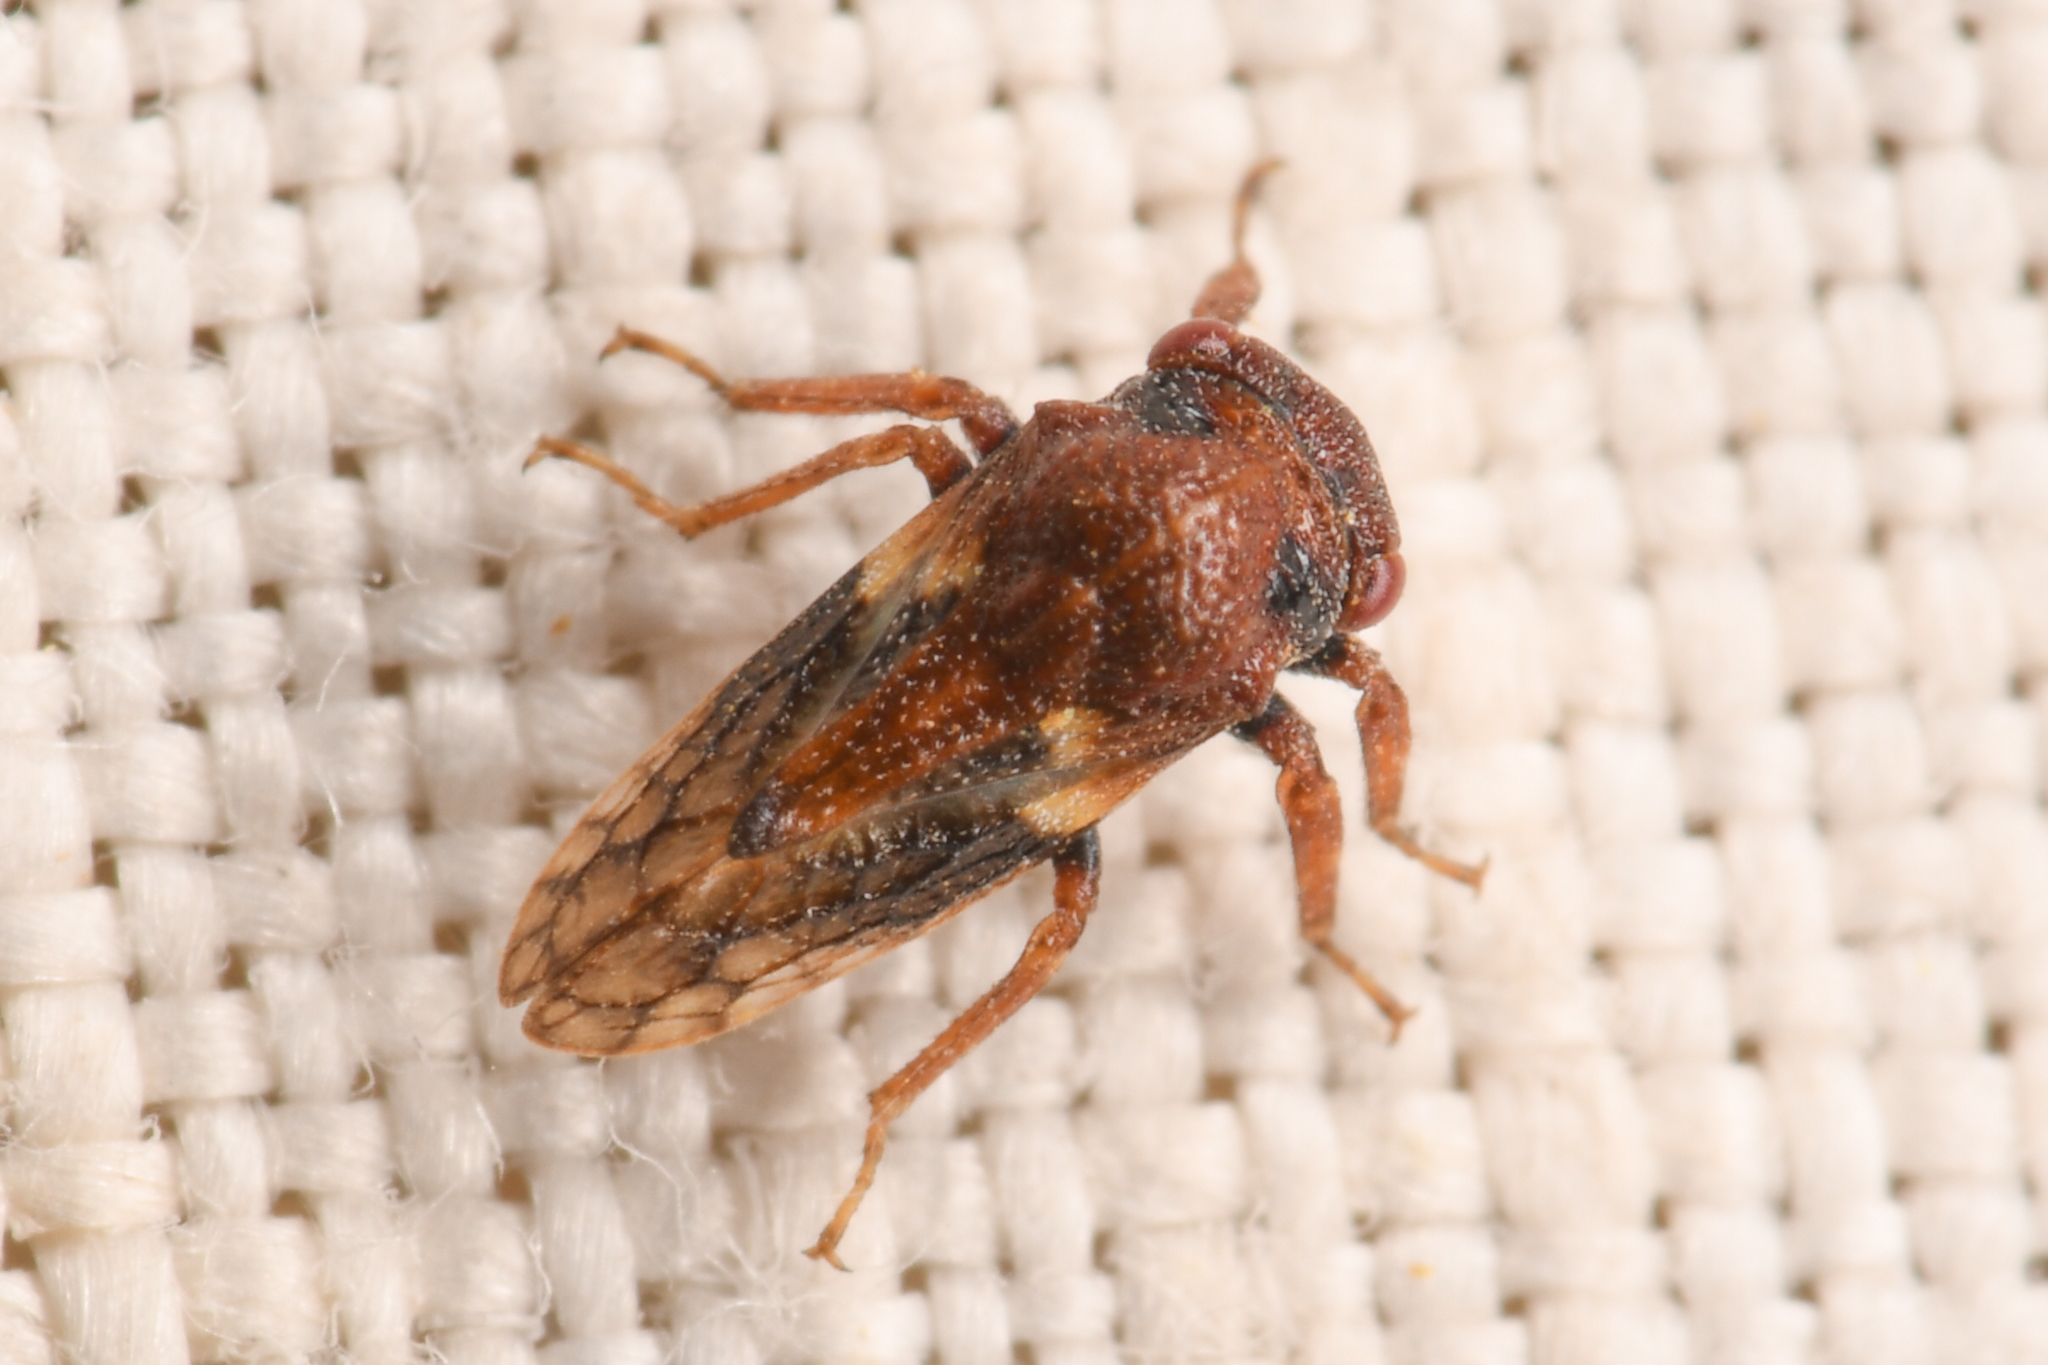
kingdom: Animalia
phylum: Arthropoda
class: Insecta
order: Hemiptera
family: Membracidae
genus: Centrodontus
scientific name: Centrodontus atlas
